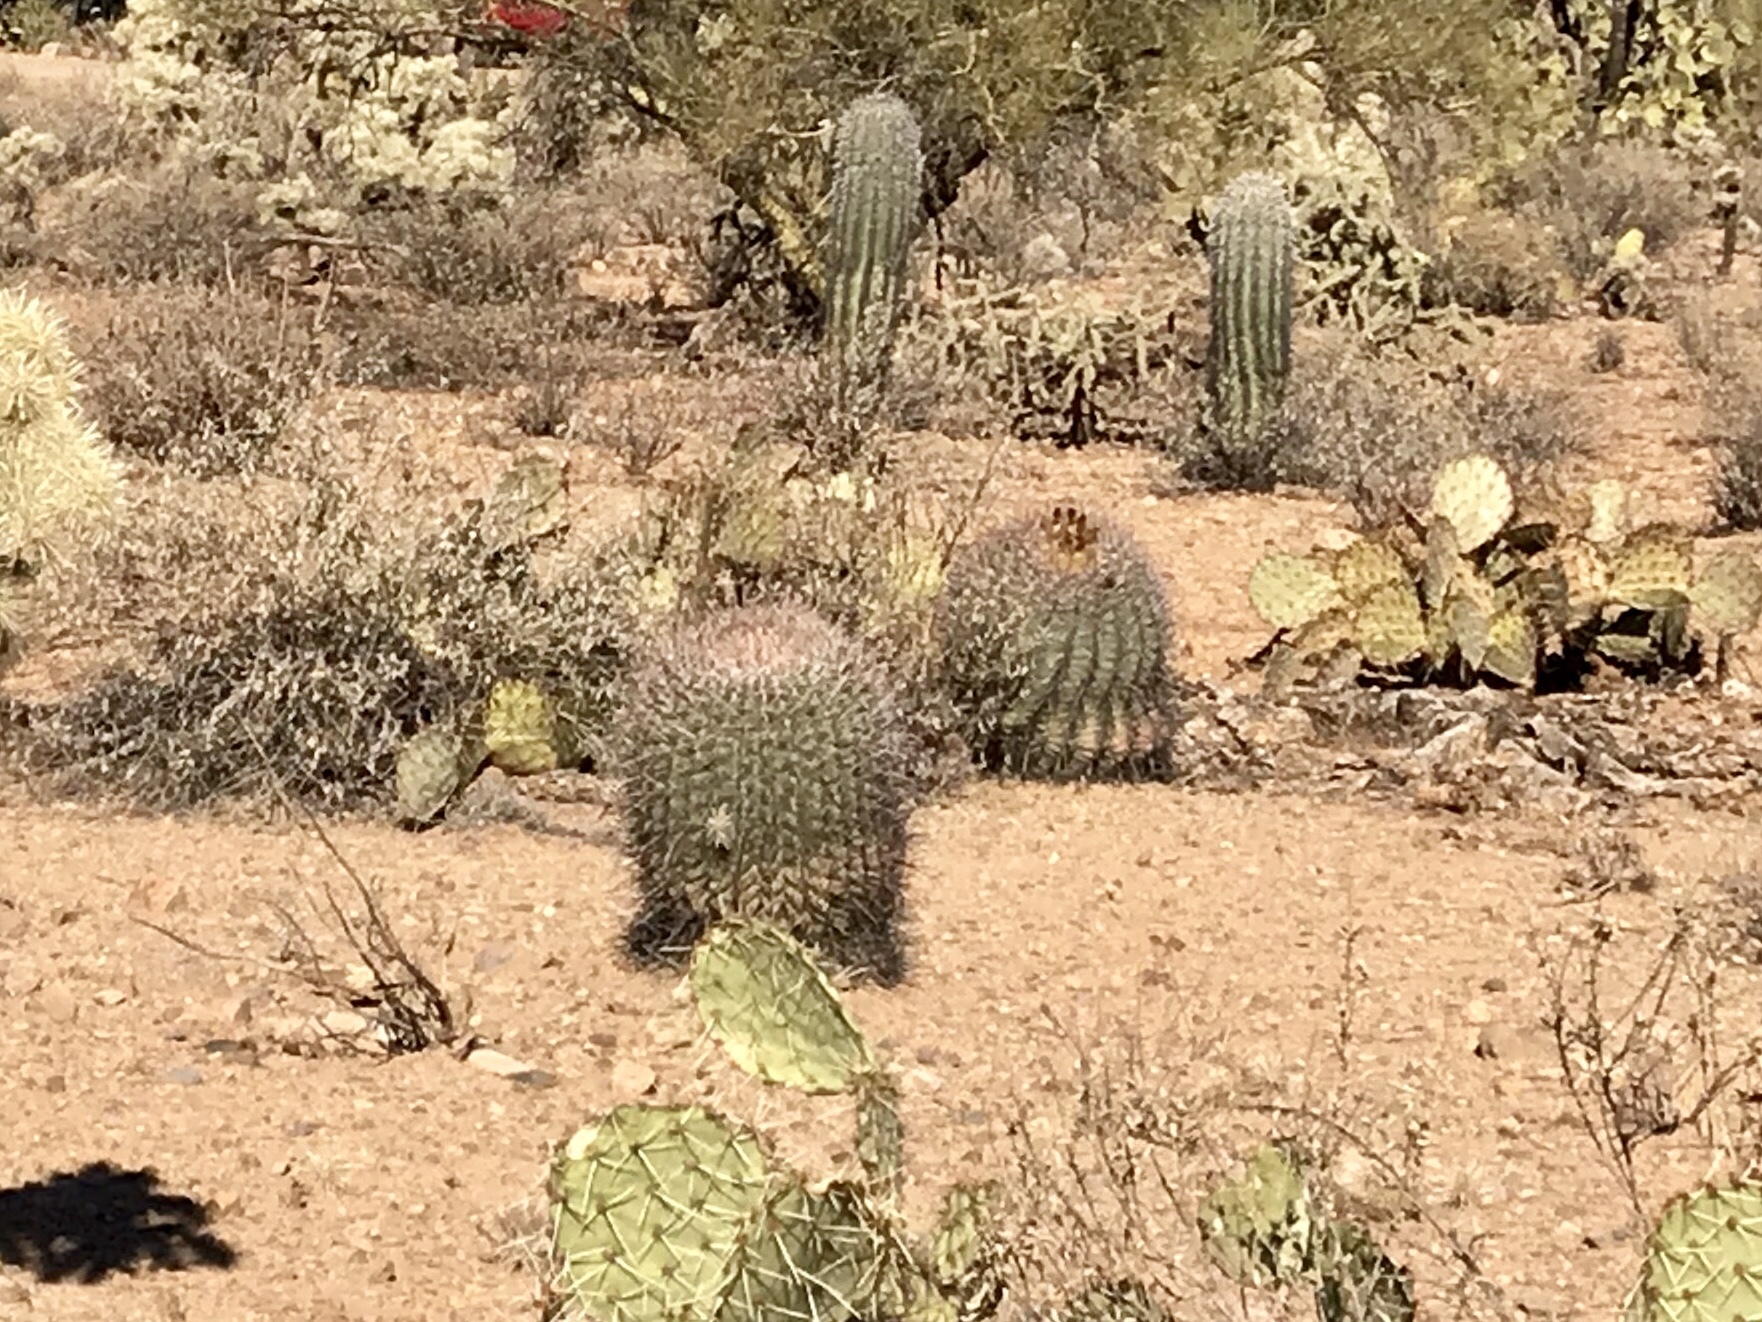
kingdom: Plantae
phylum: Tracheophyta
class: Magnoliopsida
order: Caryophyllales
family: Cactaceae
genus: Ferocactus
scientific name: Ferocactus wislizeni
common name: Candy barrel cactus
